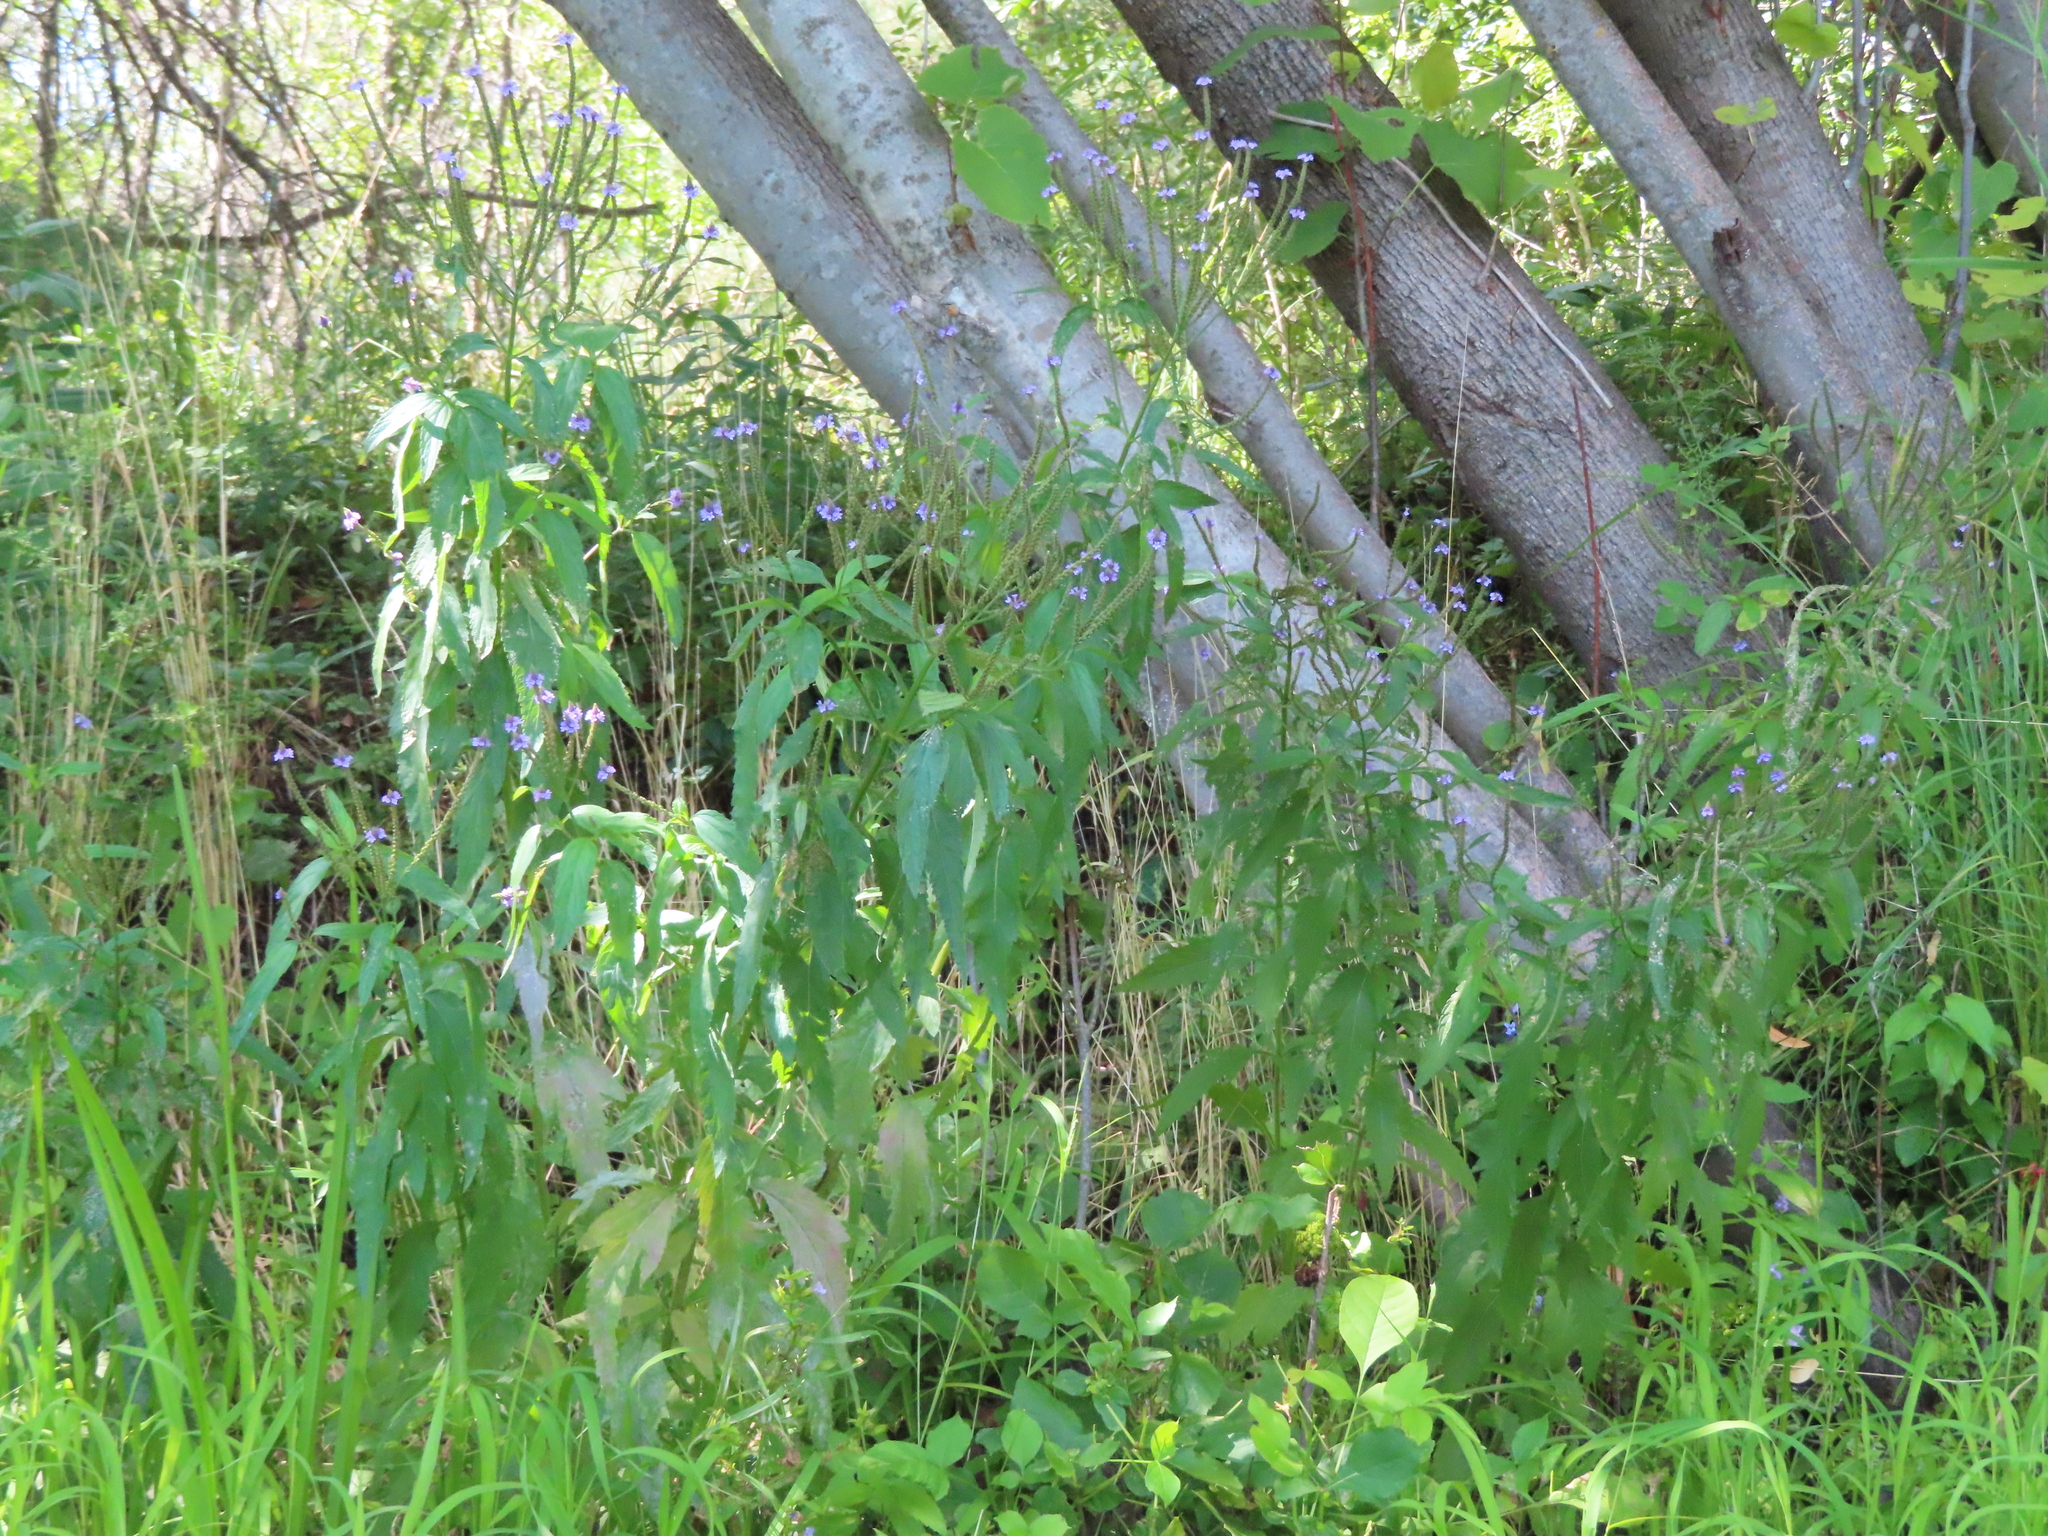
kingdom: Plantae
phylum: Tracheophyta
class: Magnoliopsida
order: Lamiales
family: Verbenaceae
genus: Verbena
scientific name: Verbena hastata
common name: American blue vervain
